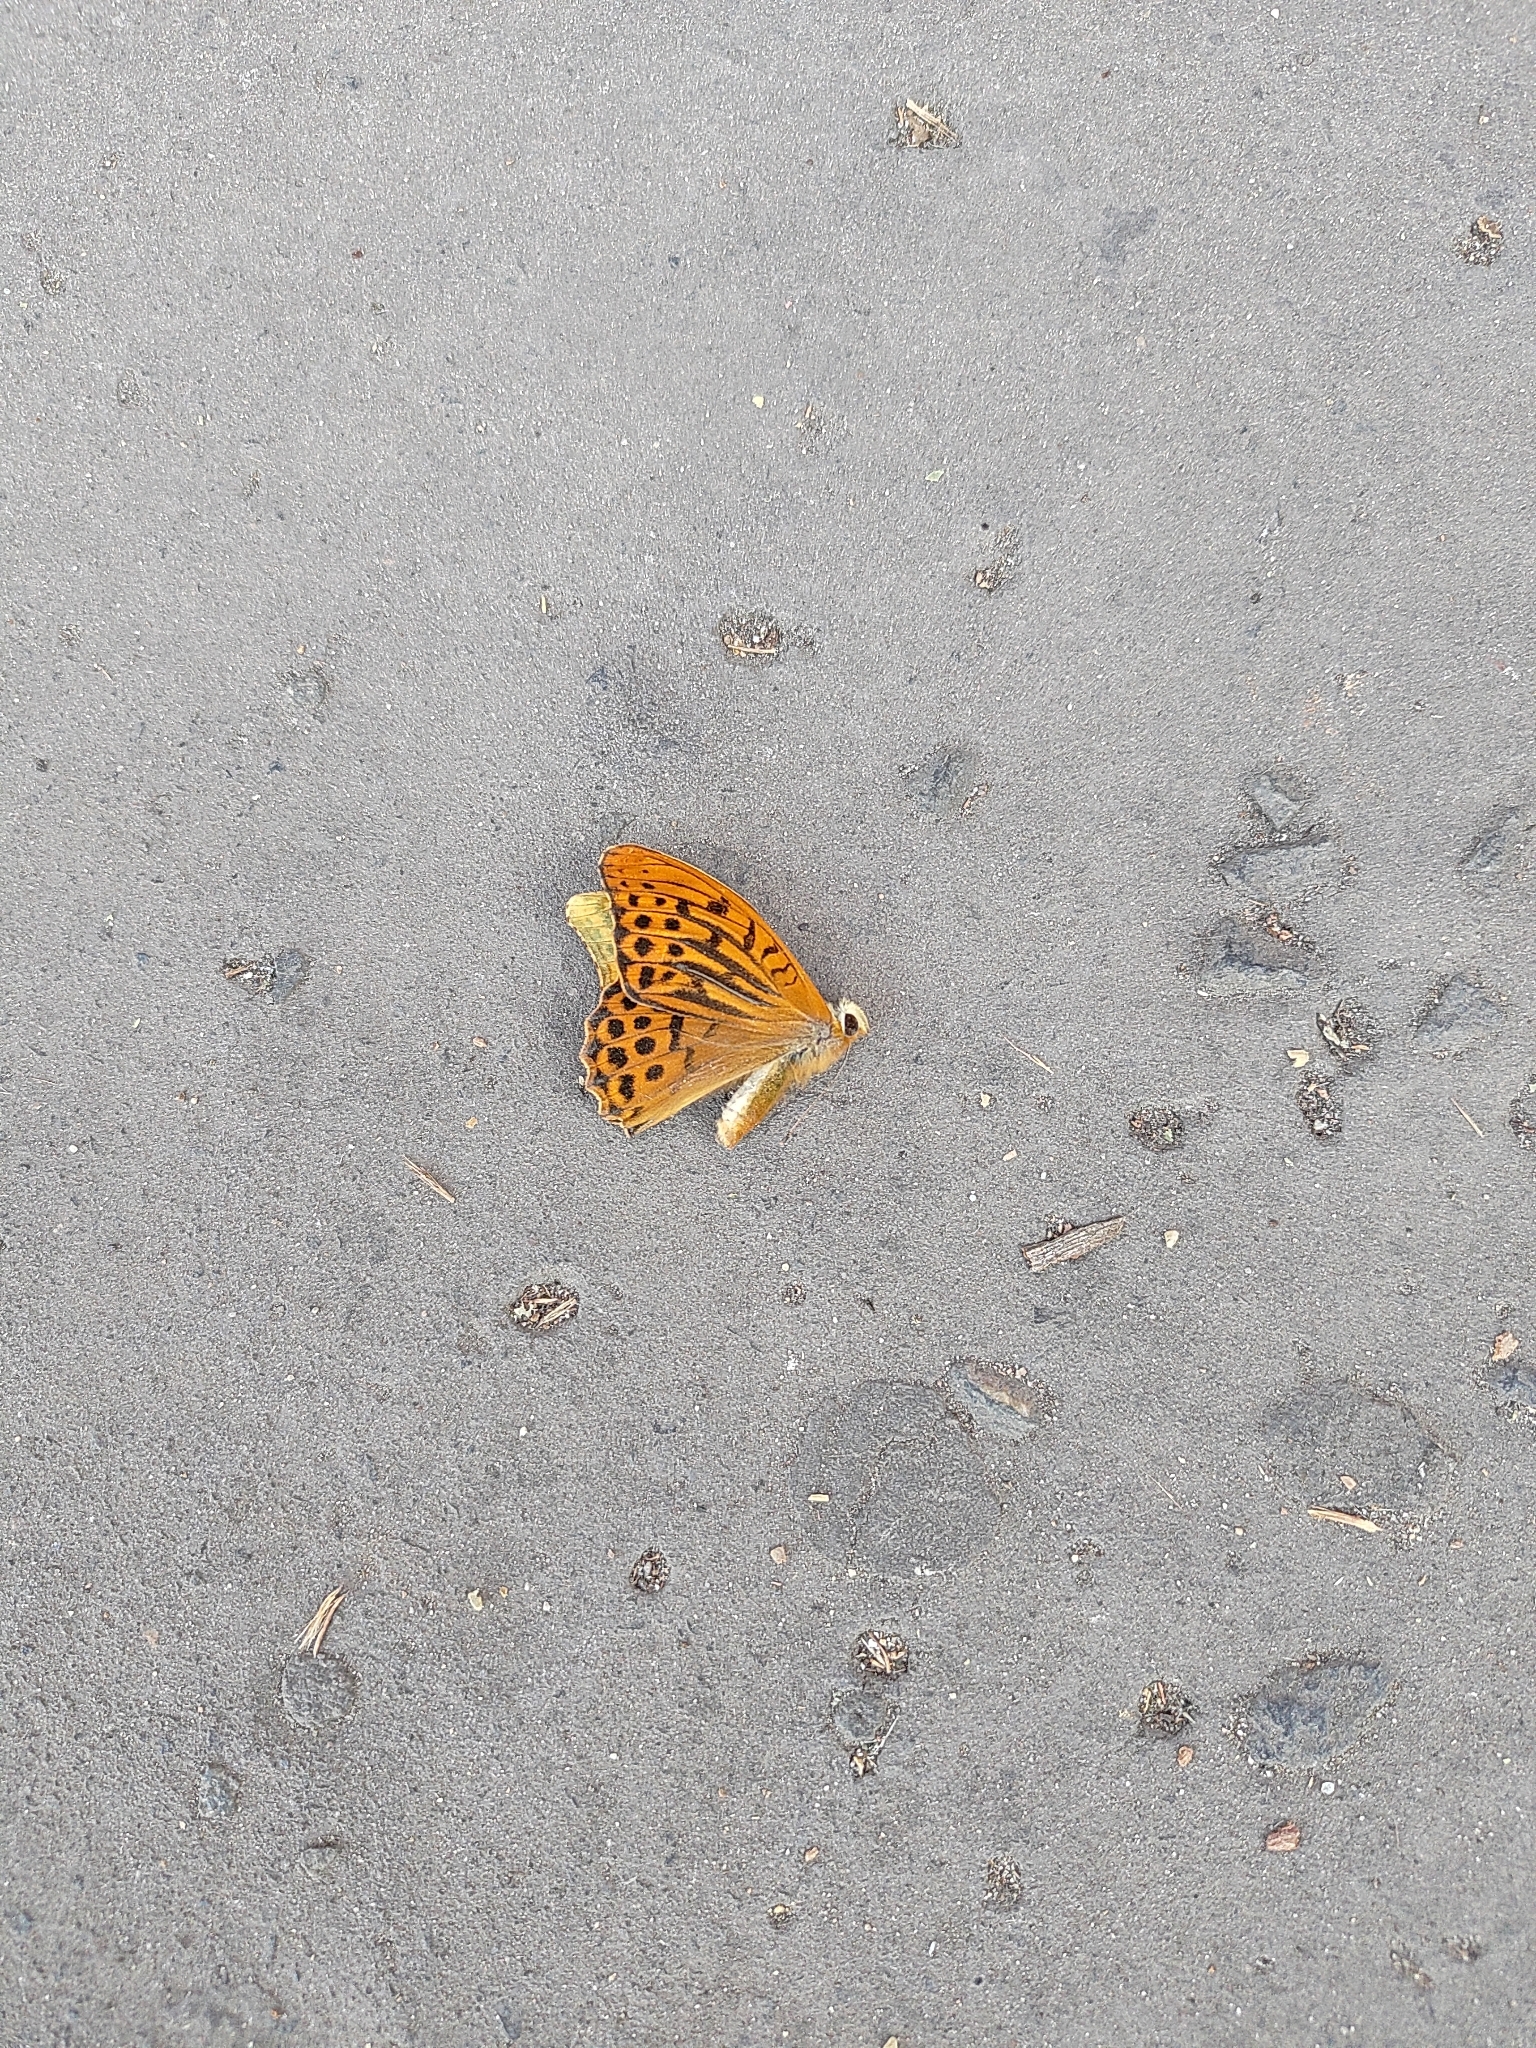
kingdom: Animalia
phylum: Arthropoda
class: Insecta
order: Lepidoptera
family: Nymphalidae
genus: Argynnis
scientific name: Argynnis paphia
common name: Silver-washed fritillary
